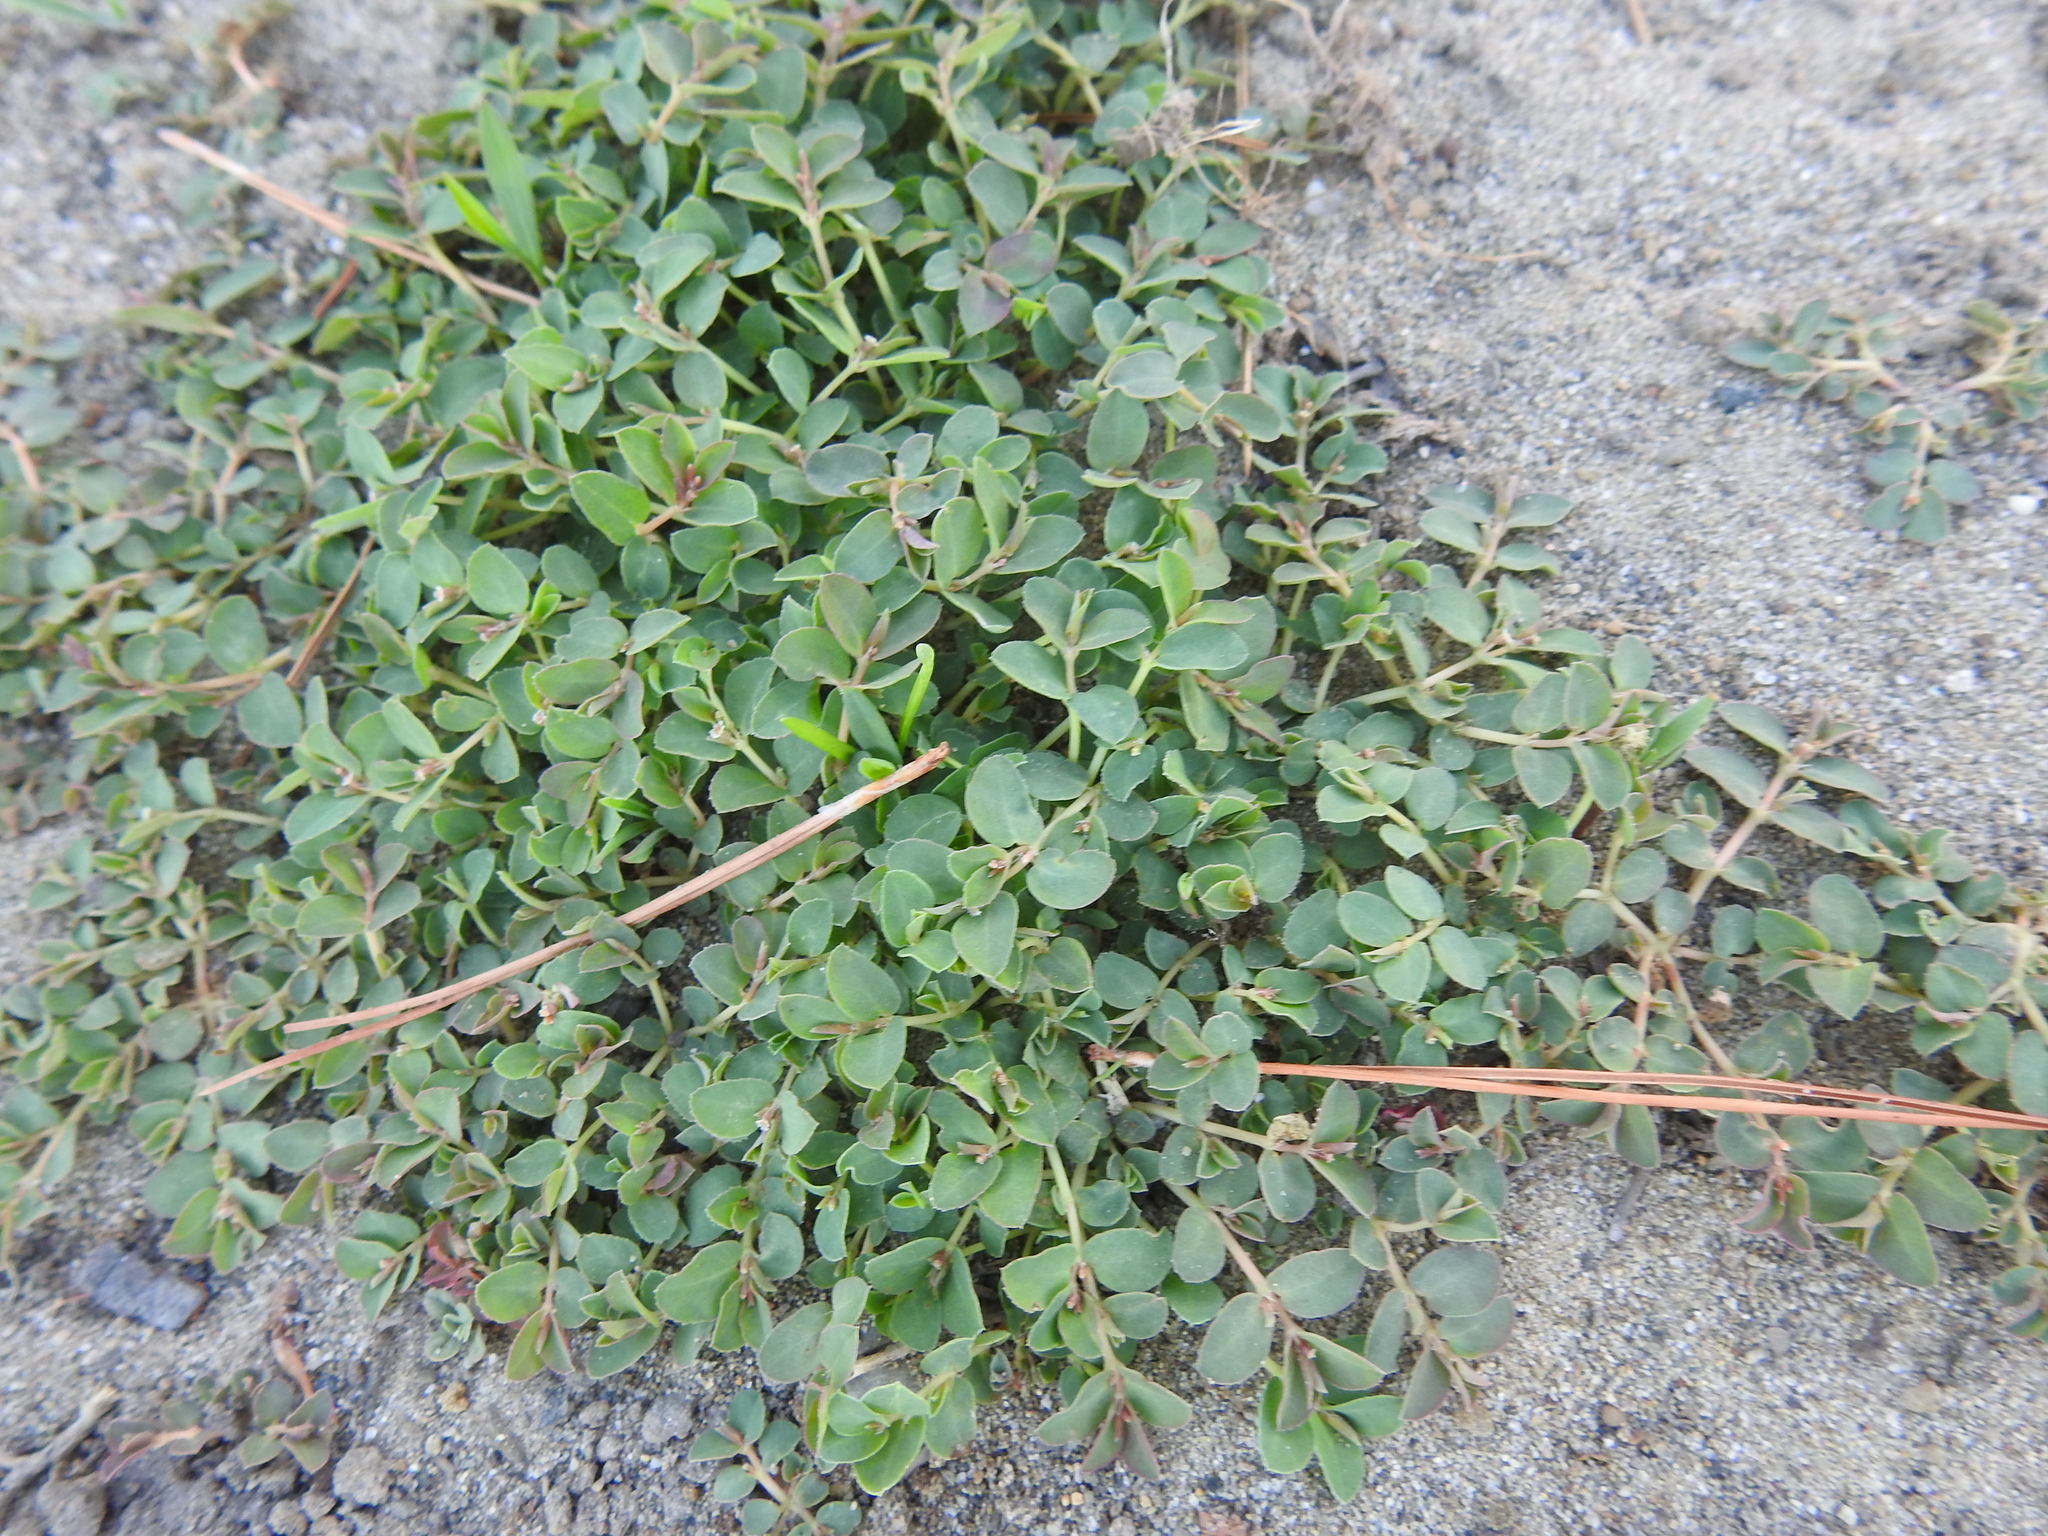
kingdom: Plantae
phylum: Tracheophyta
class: Magnoliopsida
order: Malpighiales
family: Euphorbiaceae
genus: Euphorbia
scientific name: Euphorbia serpens
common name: Matted sandmat
